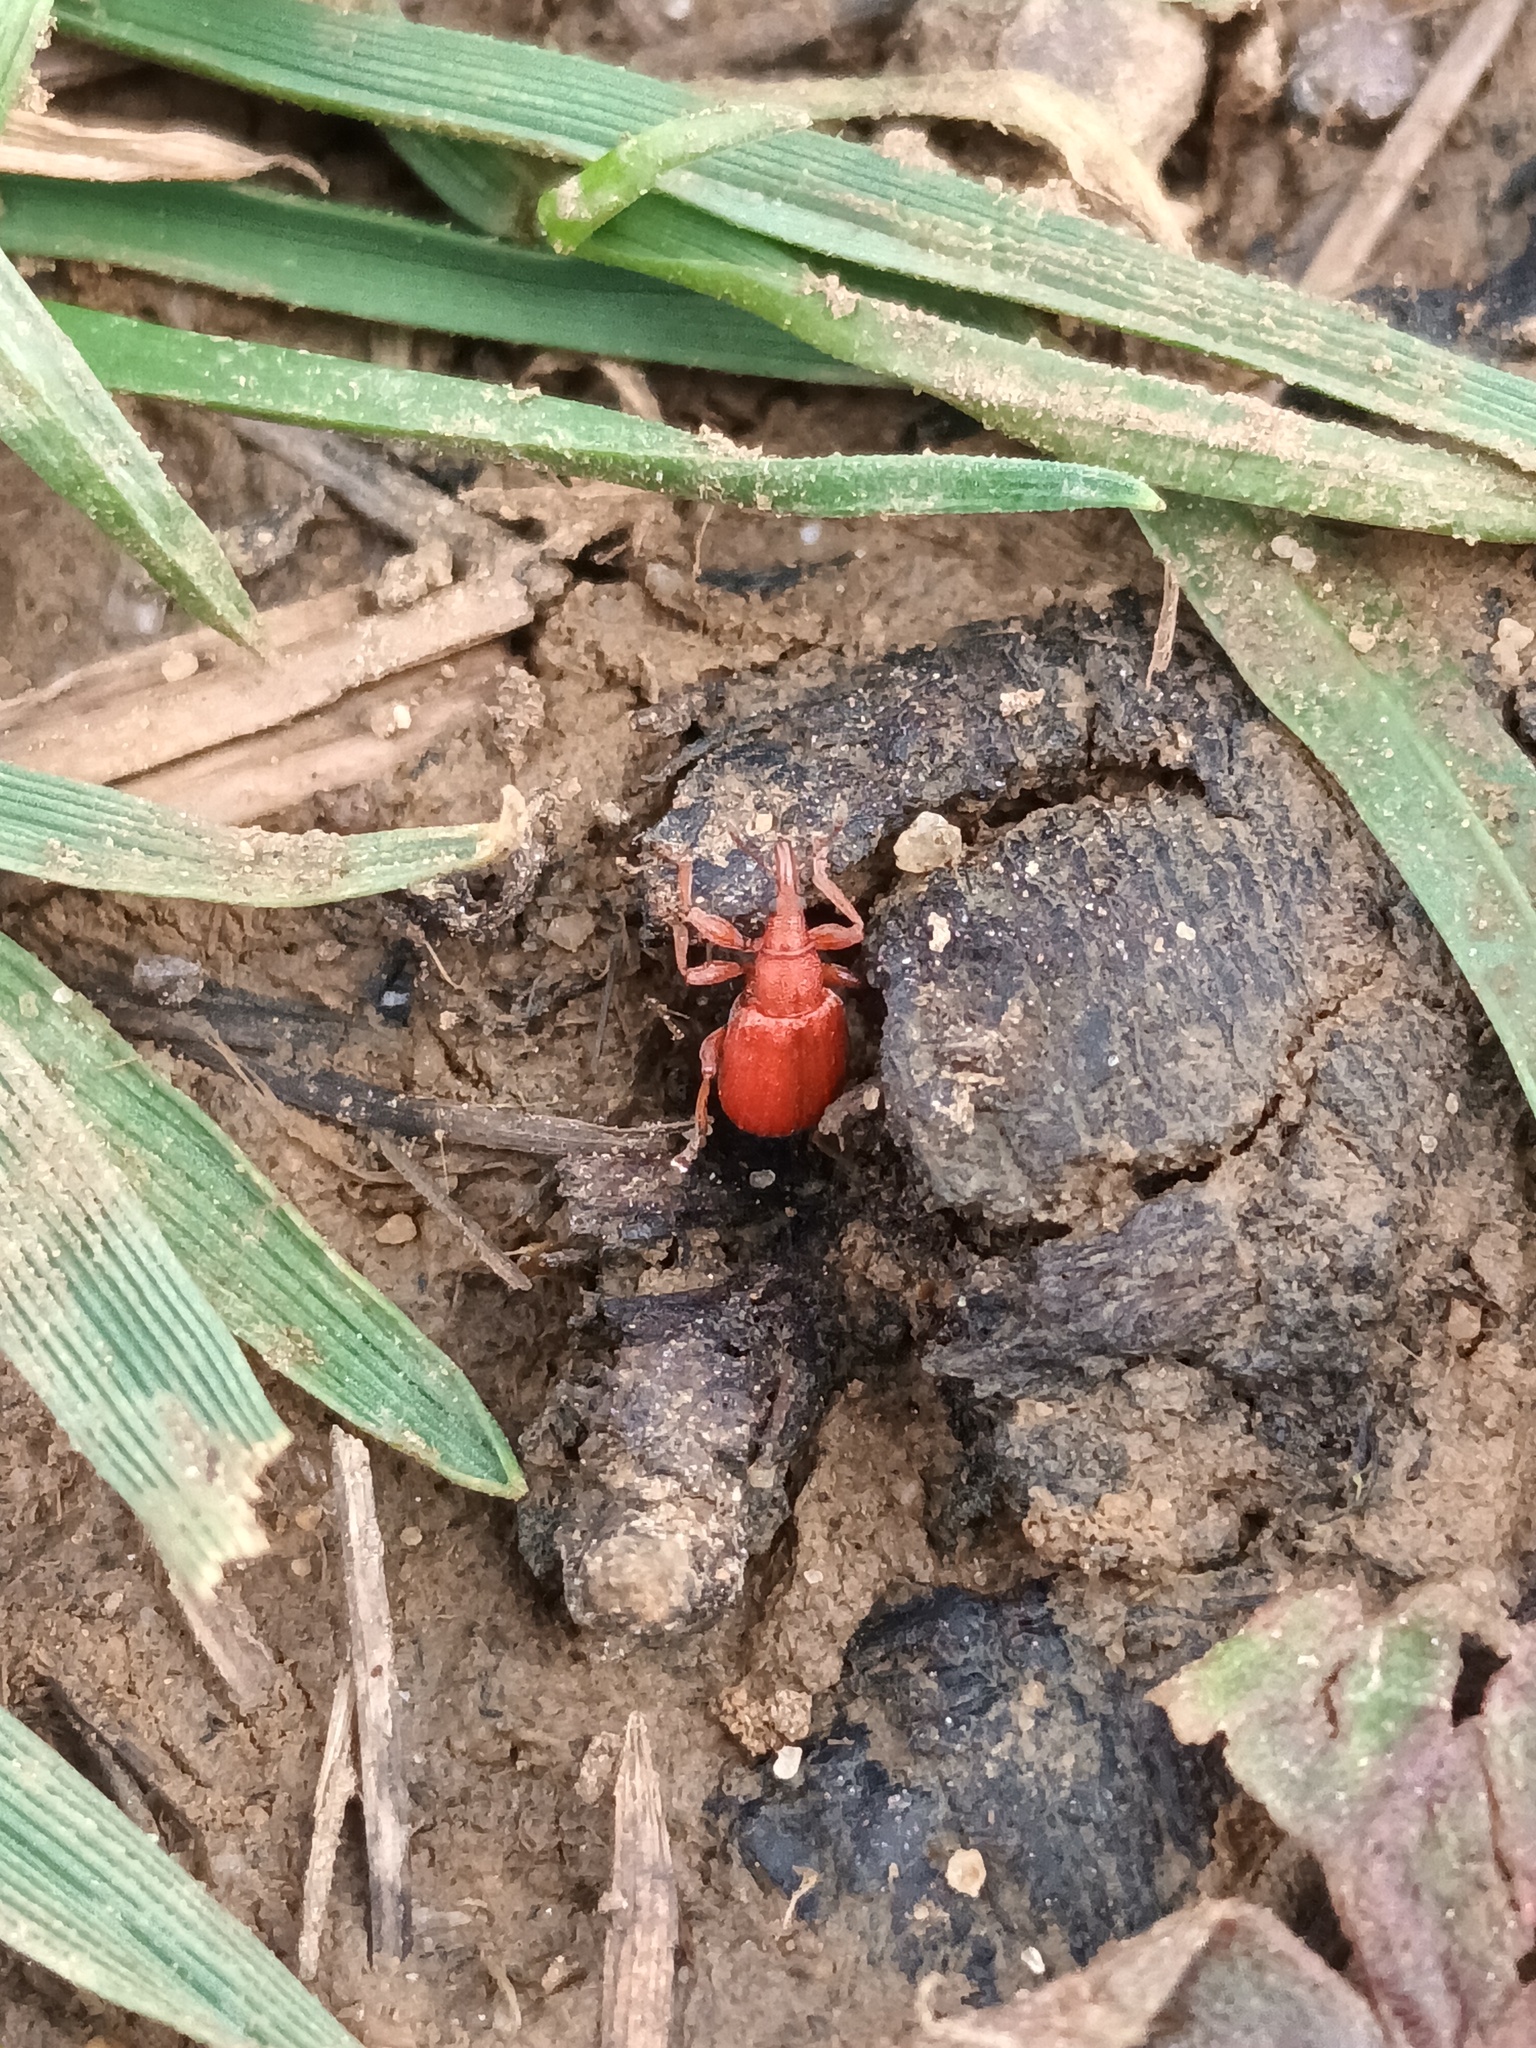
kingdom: Animalia
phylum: Arthropoda
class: Insecta
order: Coleoptera
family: Apionidae
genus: Apion
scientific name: Apion frumentarium
